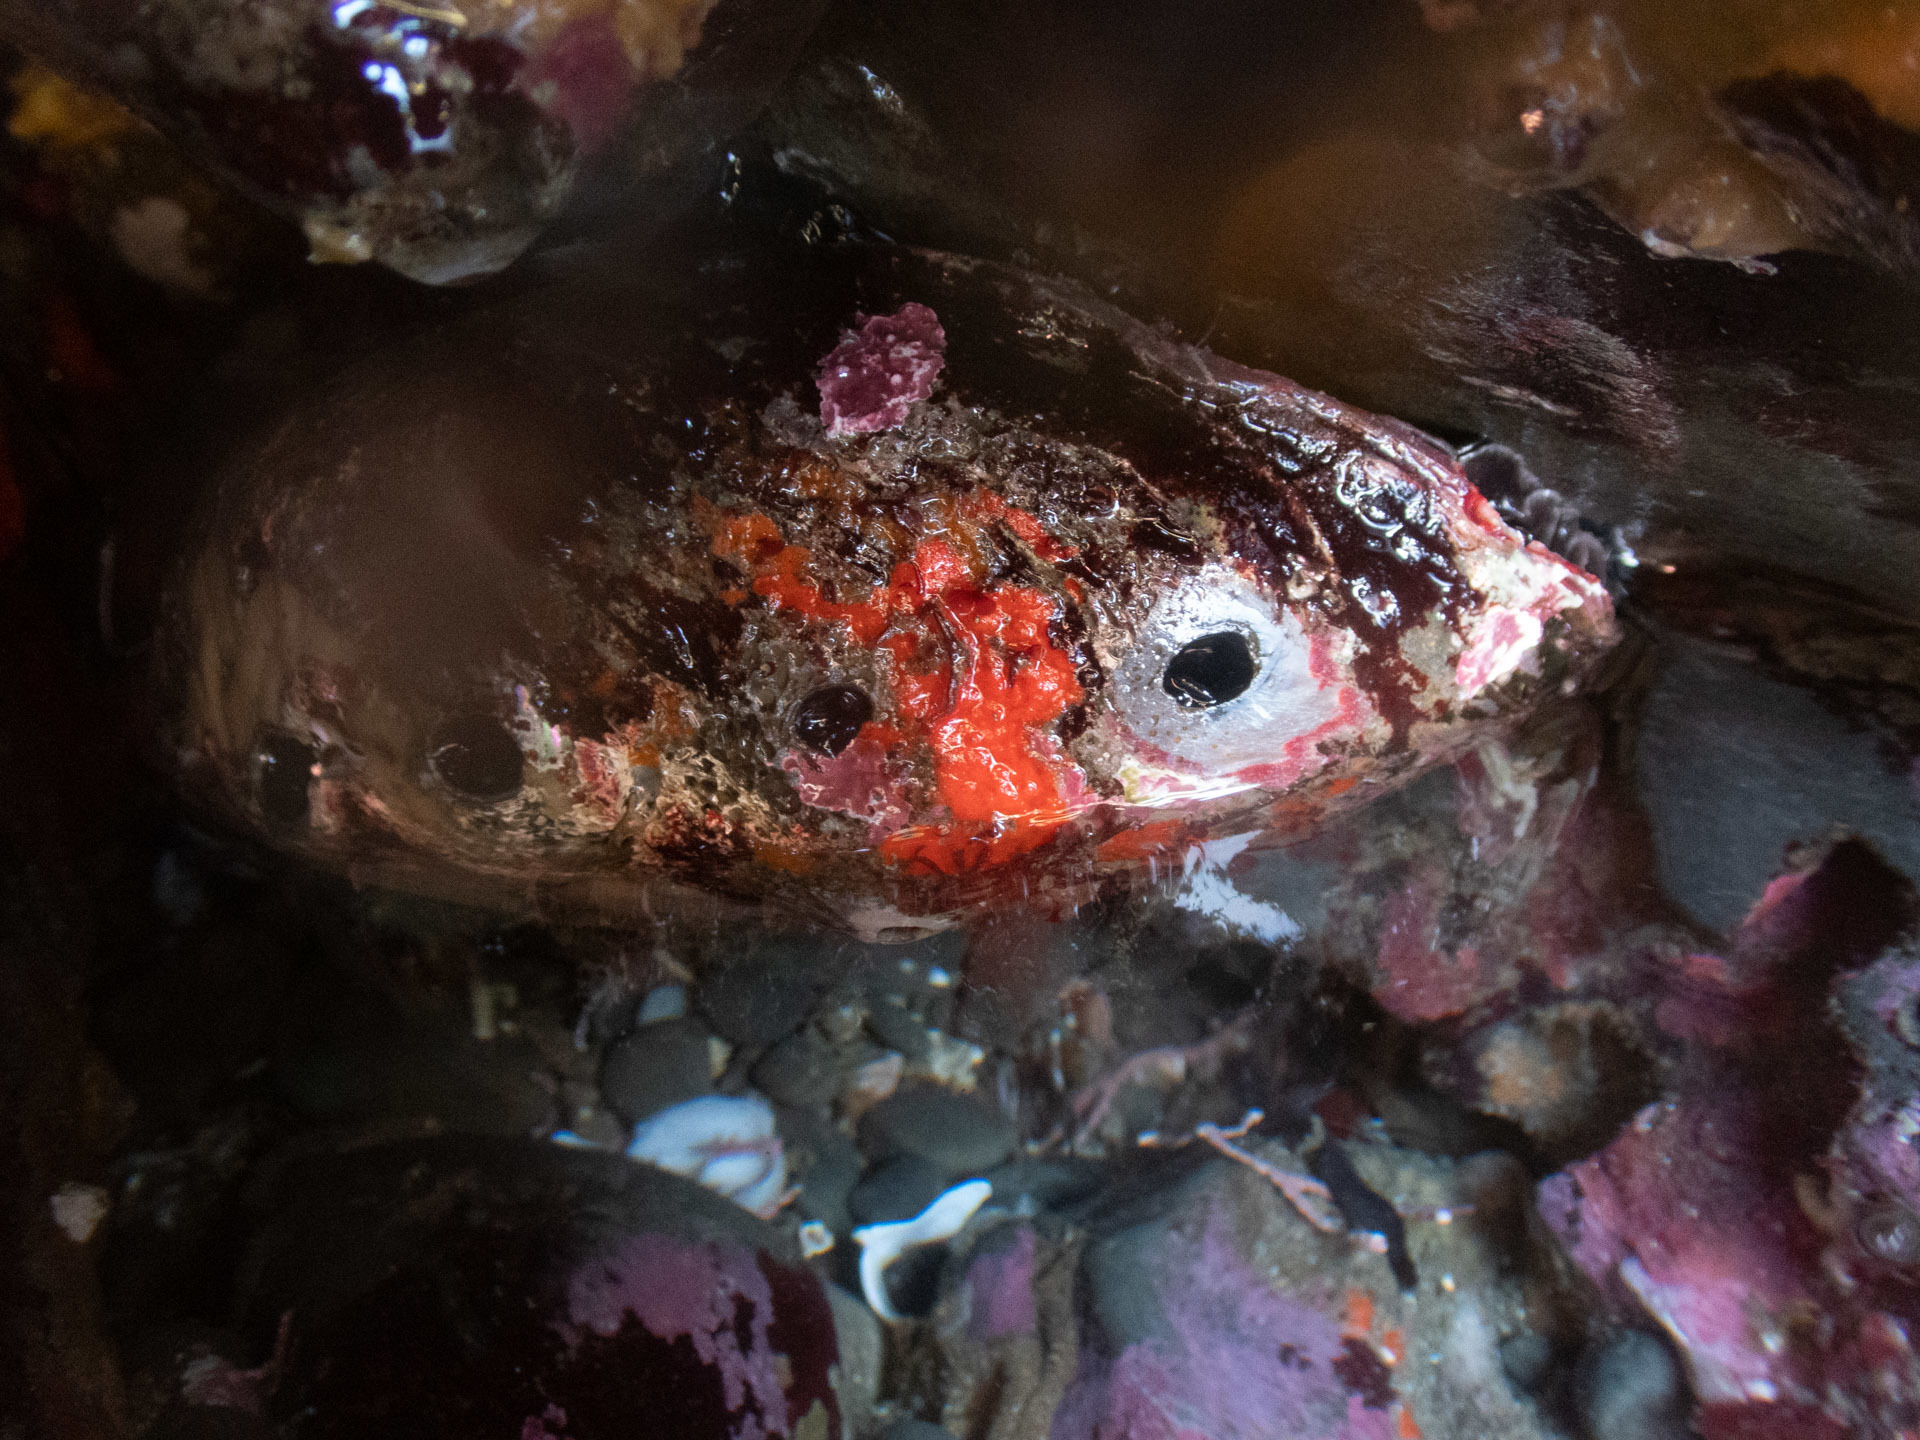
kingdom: Animalia
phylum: Mollusca
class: Gastropoda
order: Lepetellida
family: Haliotidae
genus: Haliotis
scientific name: Haliotis rufescens
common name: Red abalone
